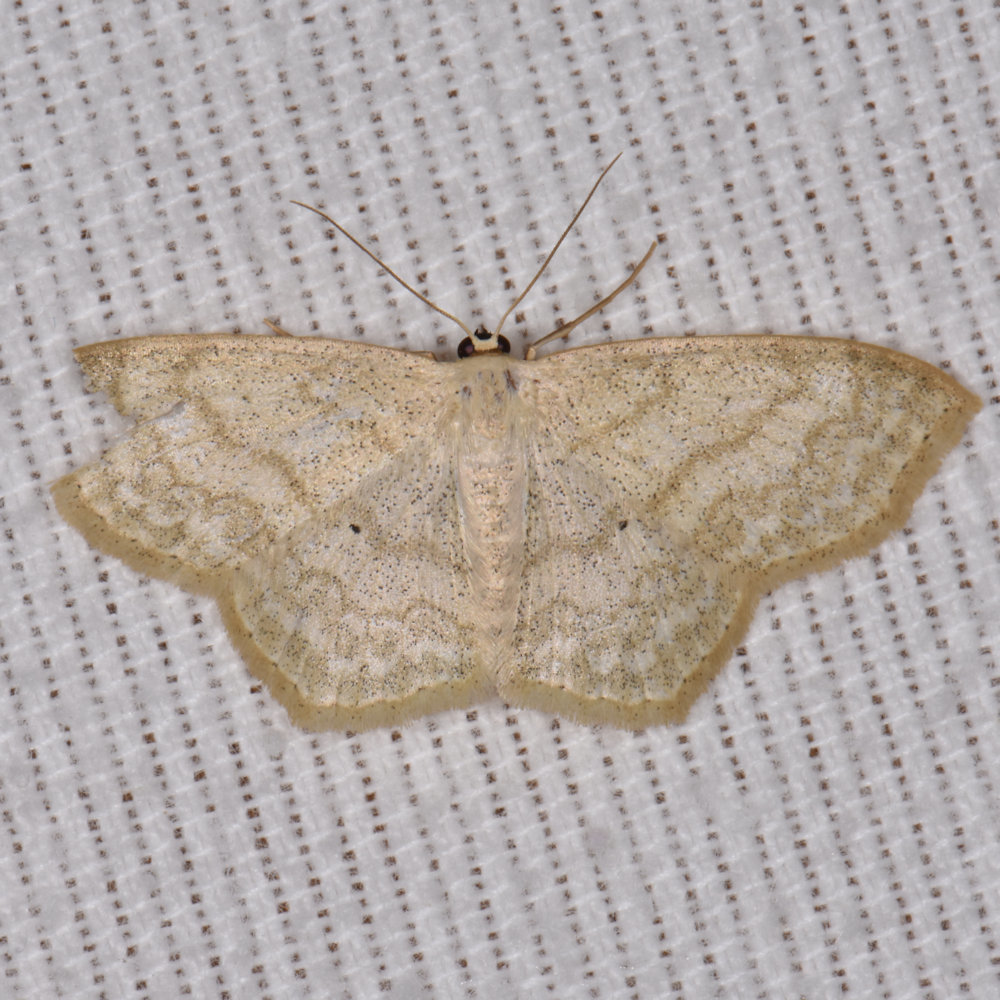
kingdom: Animalia
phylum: Arthropoda
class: Insecta
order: Lepidoptera
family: Geometridae
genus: Scopula
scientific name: Scopula limboundata
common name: Large lace border
